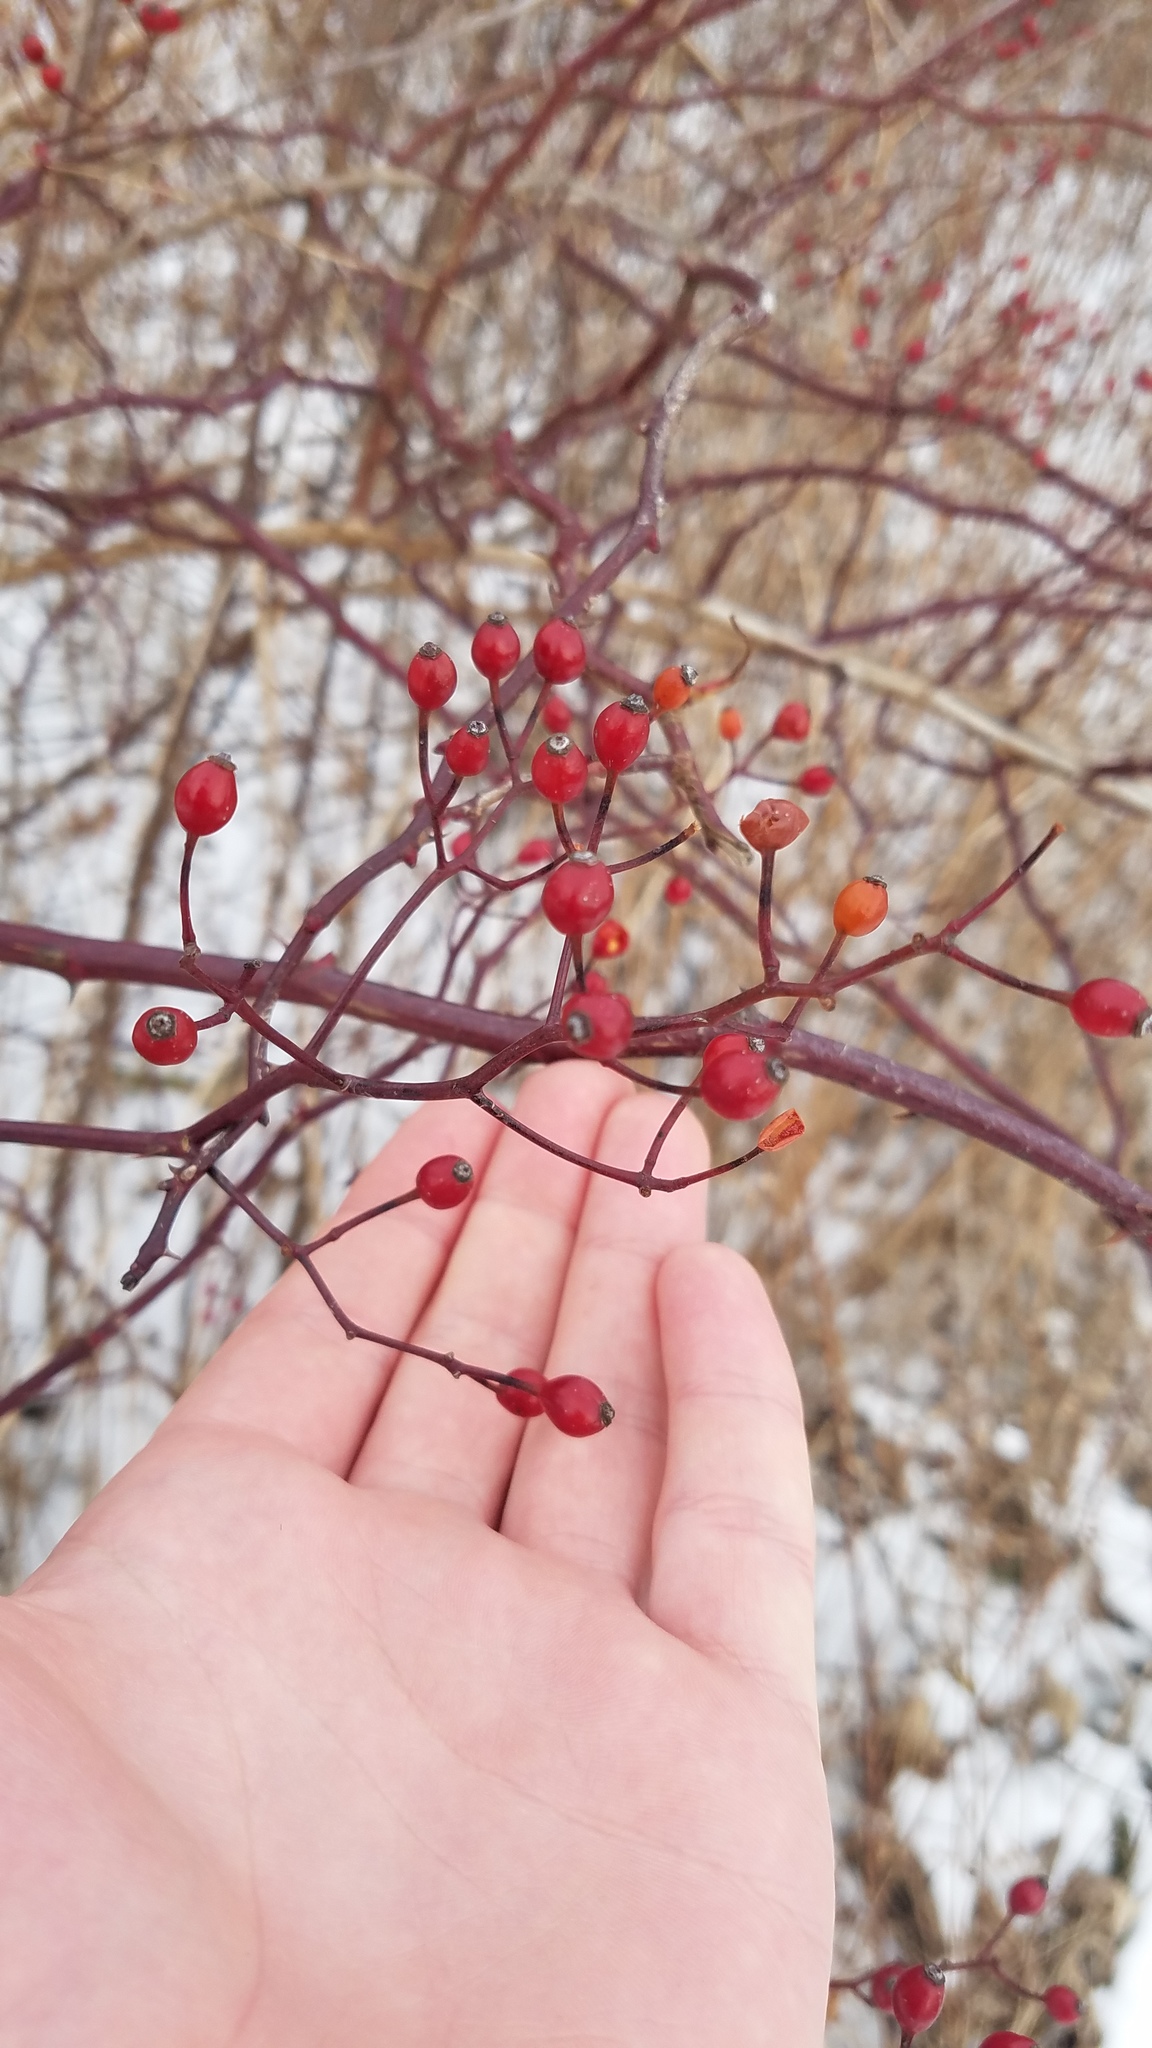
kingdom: Plantae
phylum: Tracheophyta
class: Magnoliopsida
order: Rosales
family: Rosaceae
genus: Rosa
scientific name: Rosa multiflora
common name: Multiflora rose
